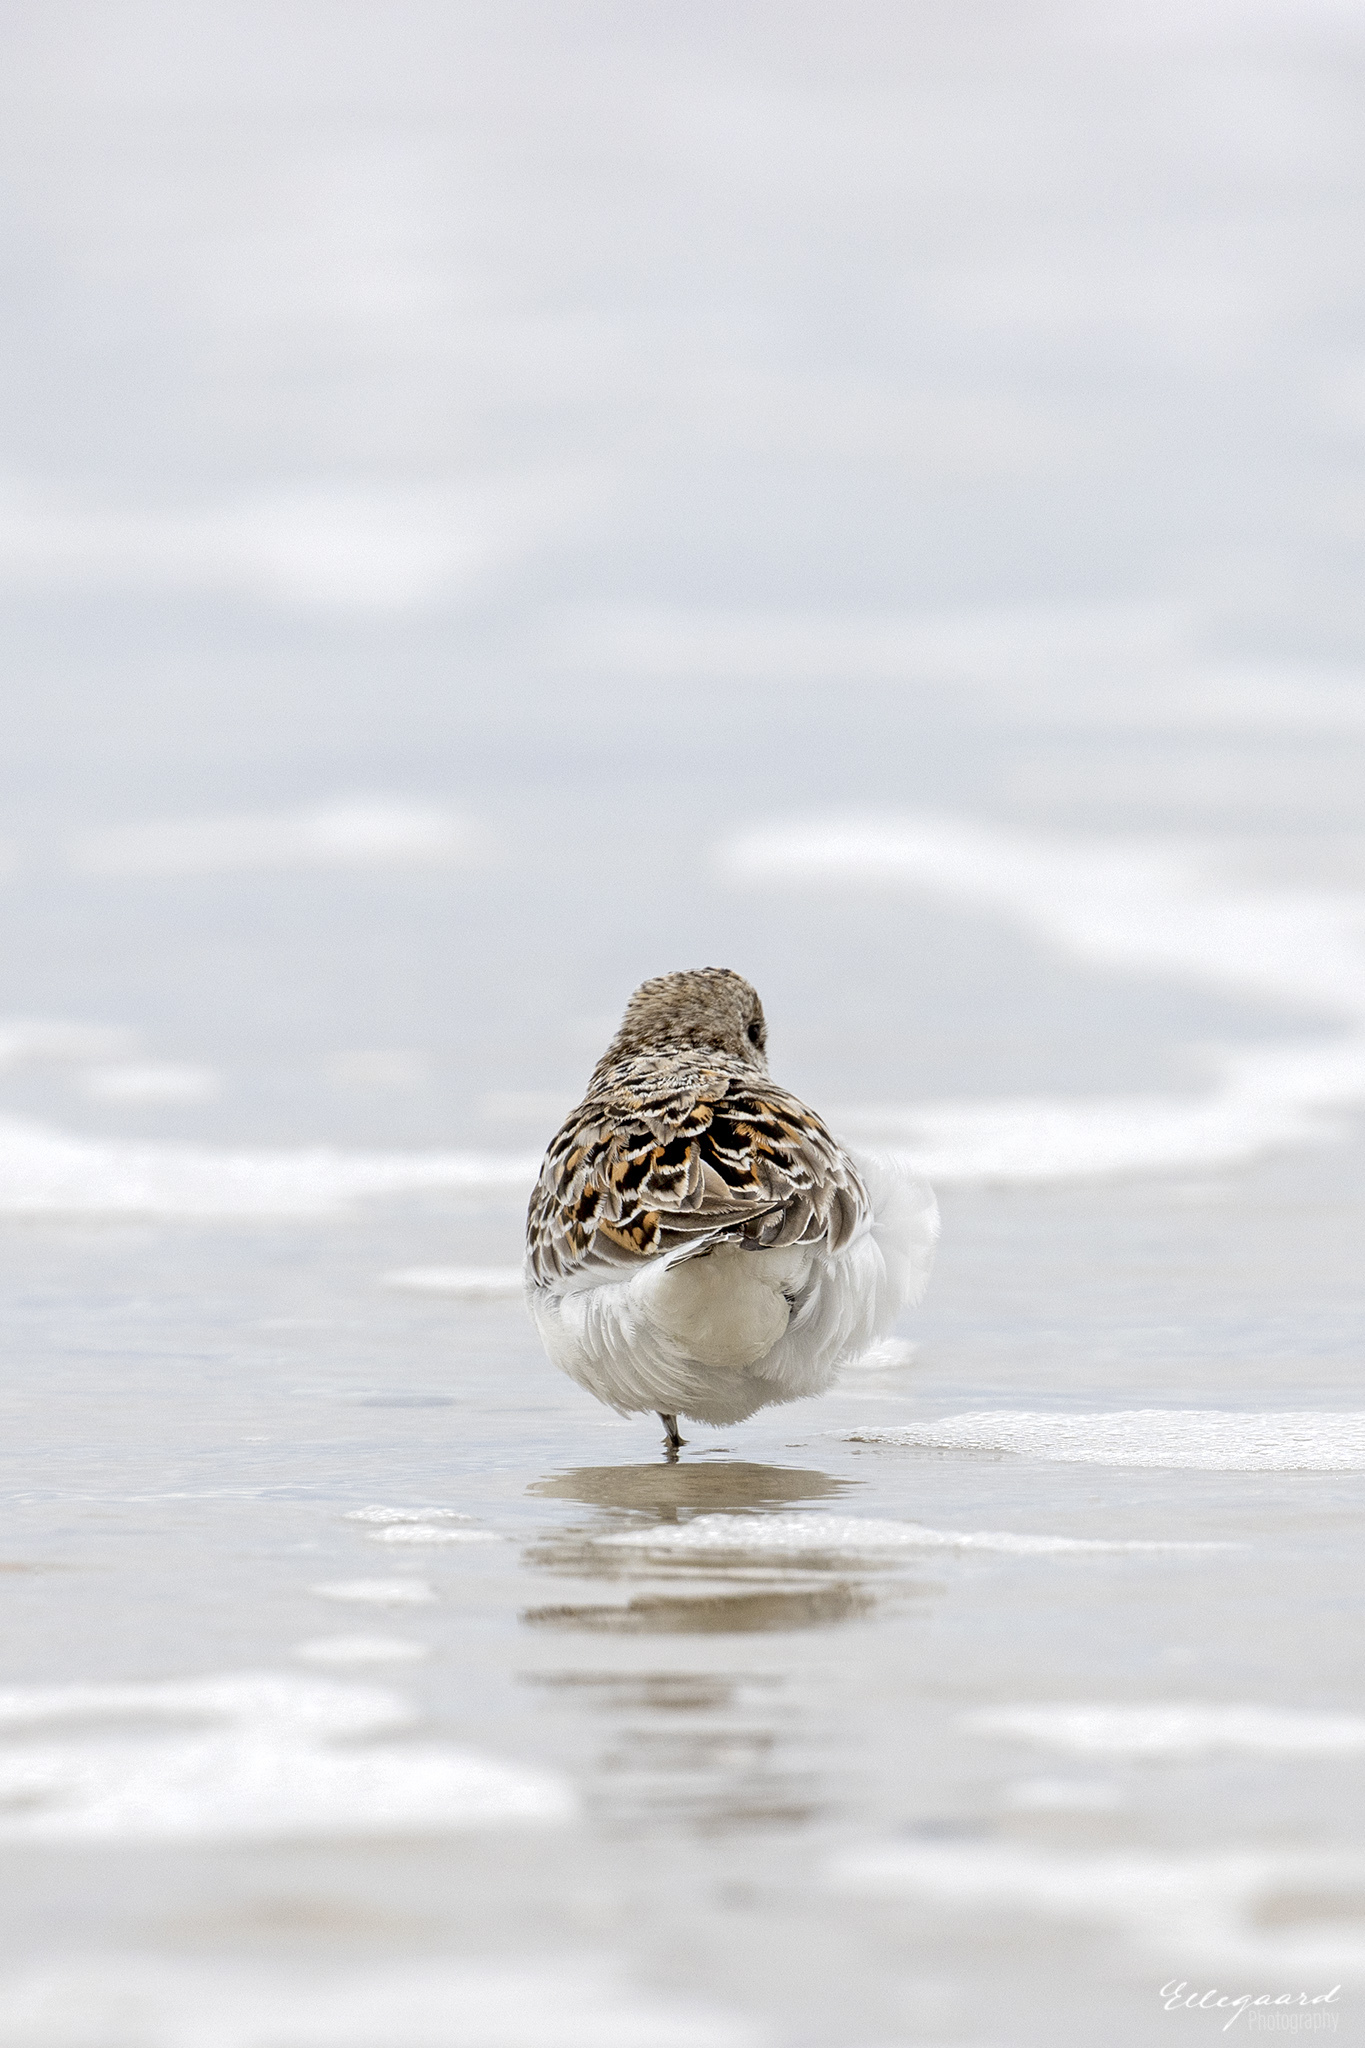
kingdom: Animalia
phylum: Chordata
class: Aves
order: Charadriiformes
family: Scolopacidae
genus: Calidris
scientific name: Calidris alba
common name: Sanderling
